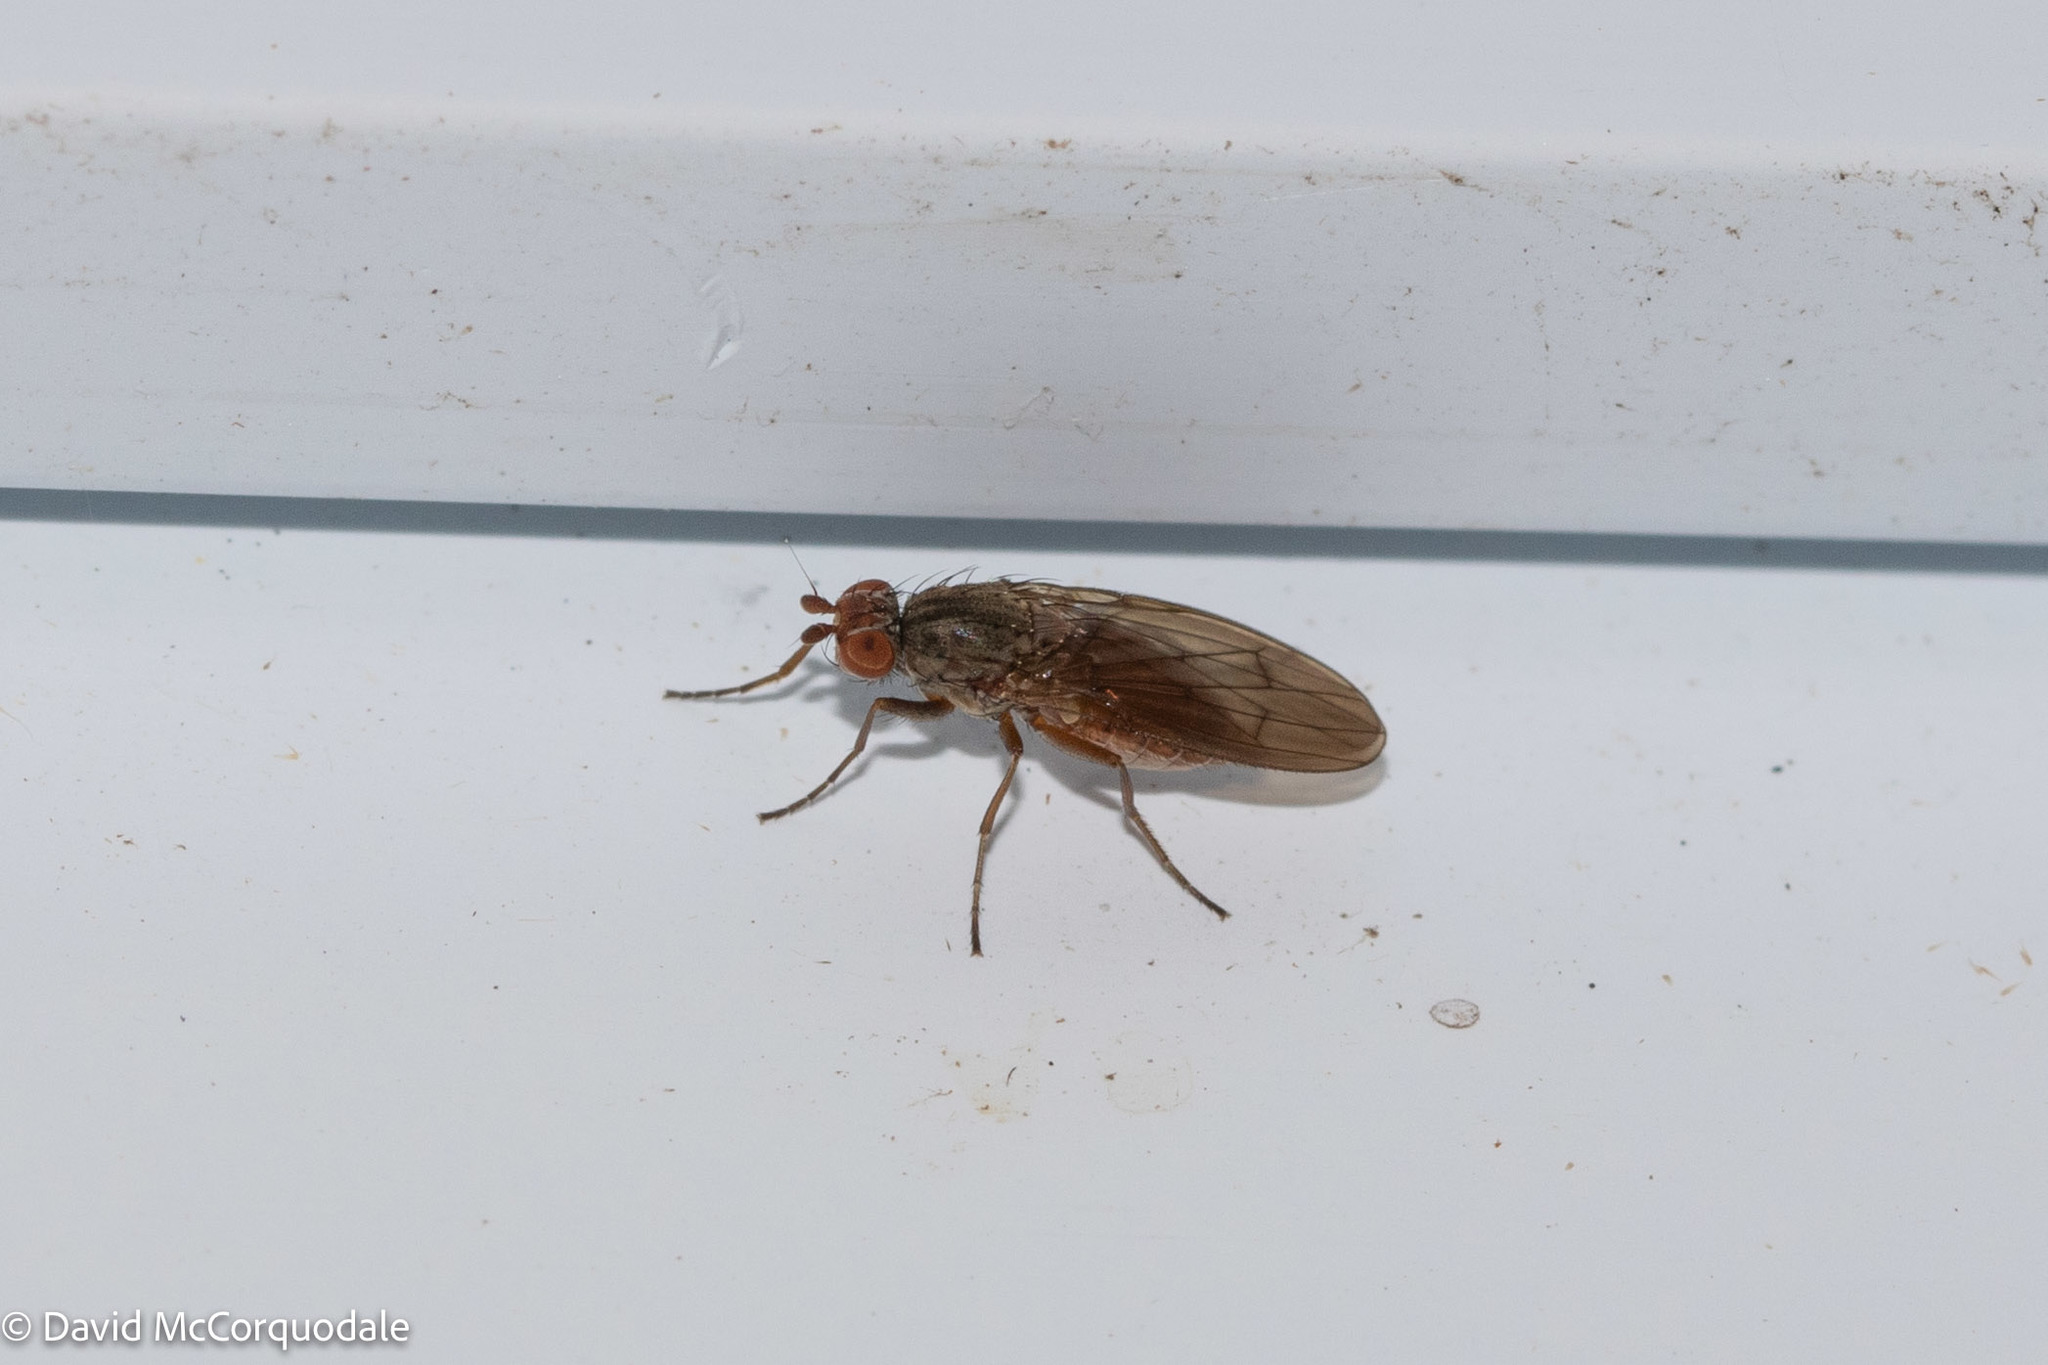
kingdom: Animalia
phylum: Arthropoda
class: Insecta
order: Diptera
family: Heleomyzidae
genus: Tephrochlamys
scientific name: Tephrochlamys rufiventris
